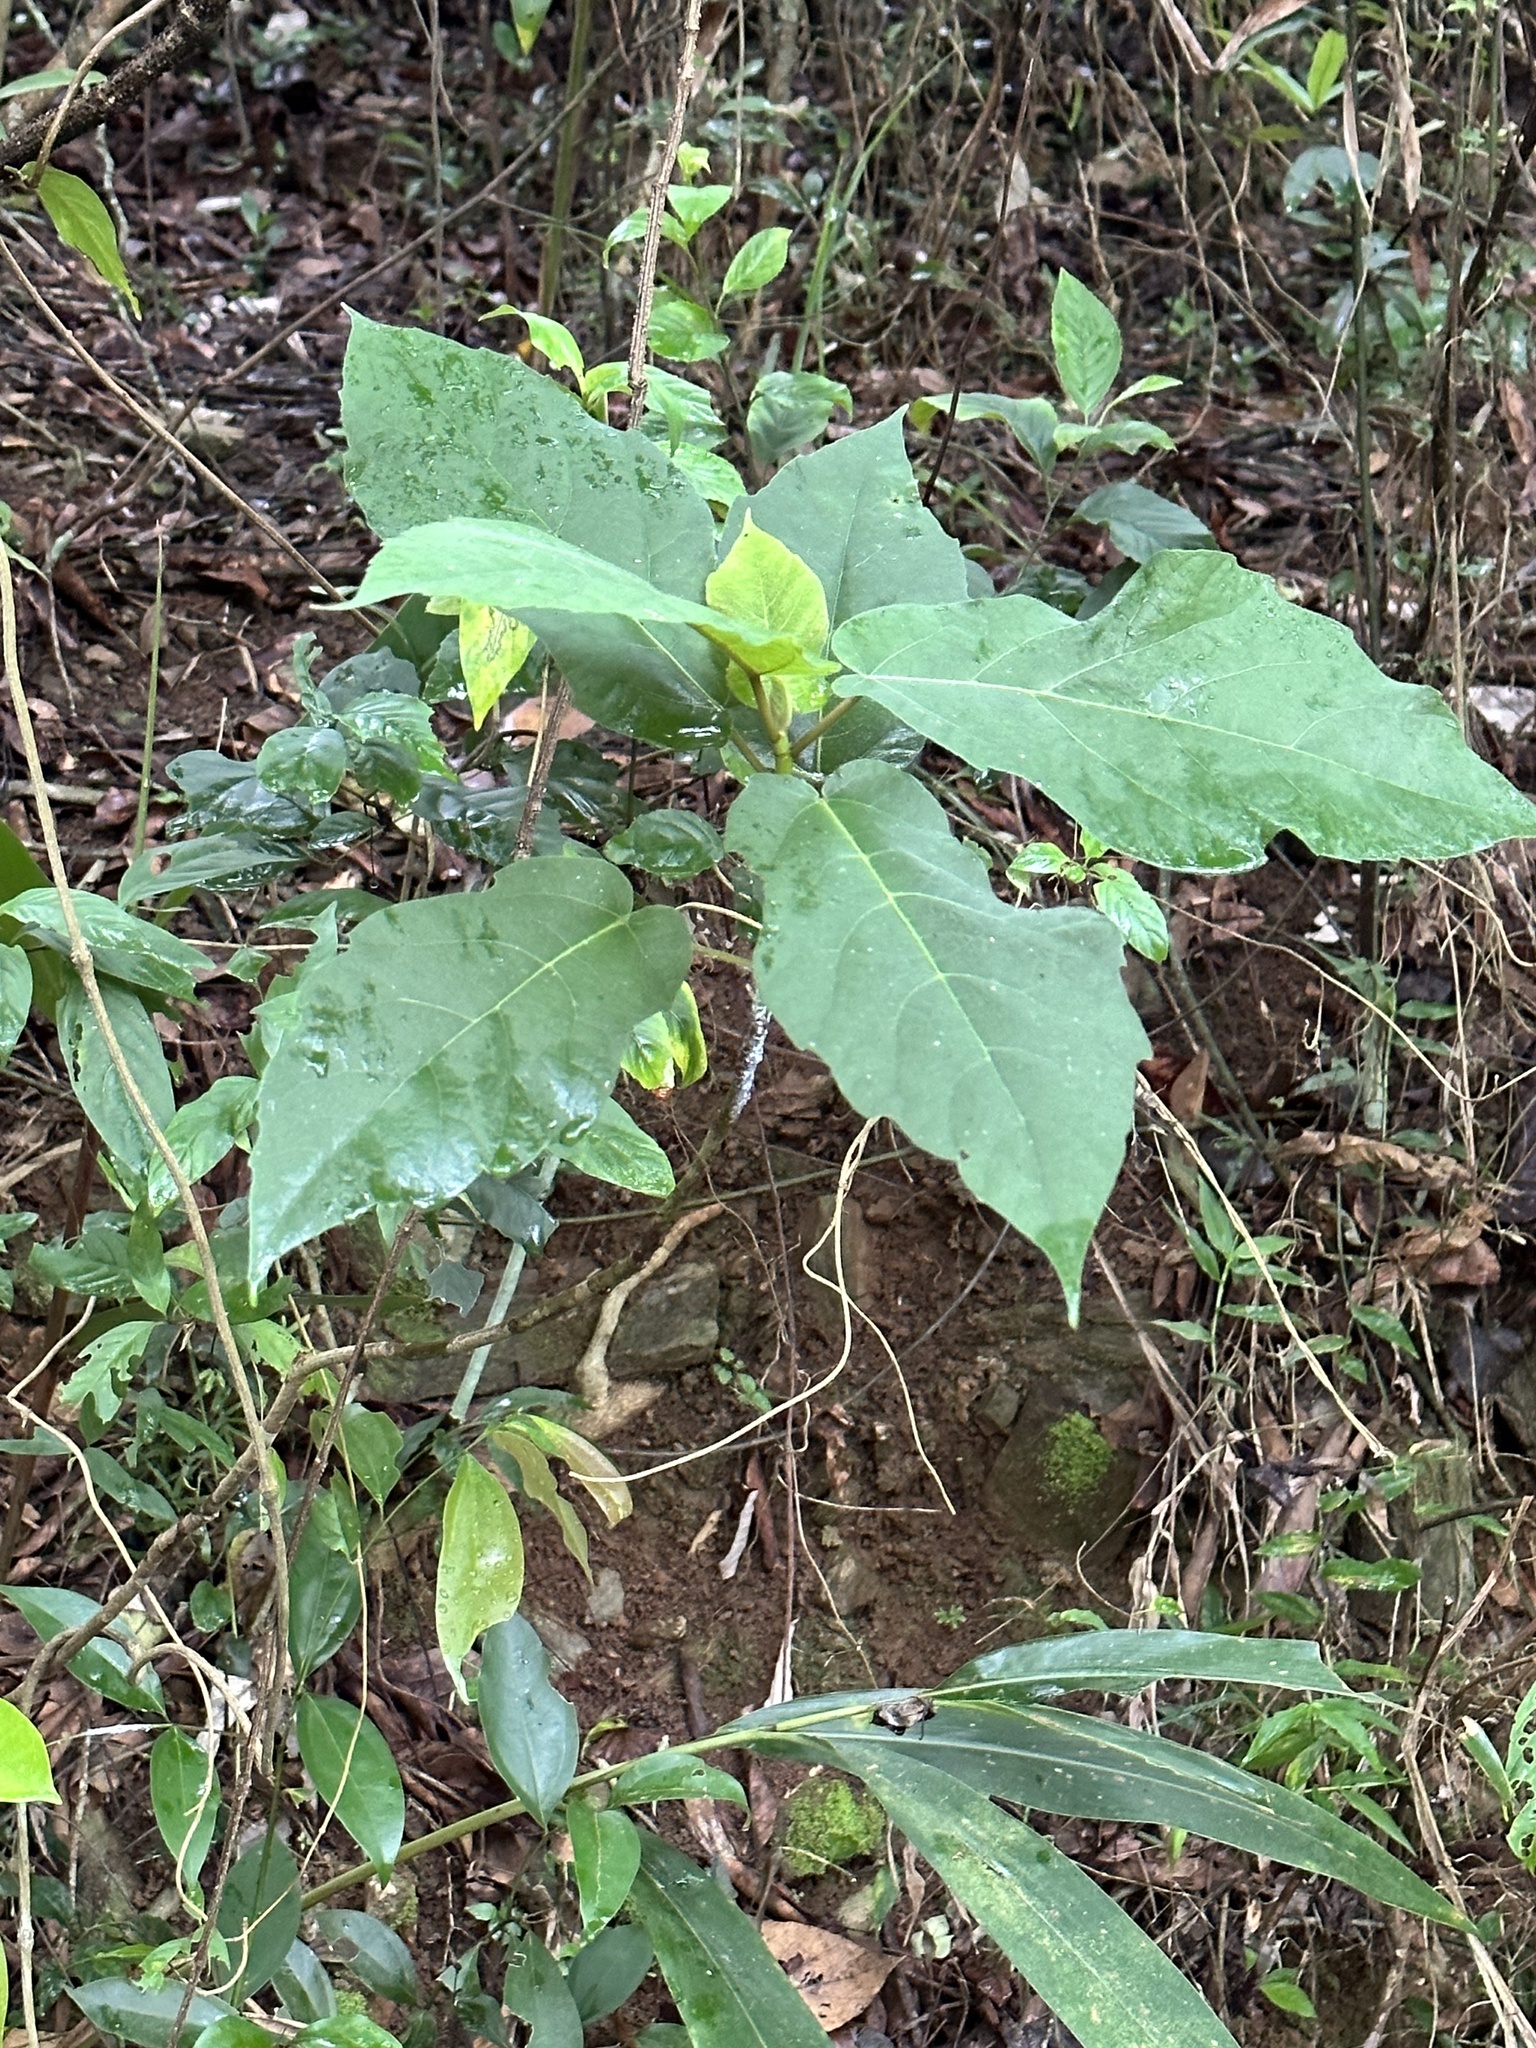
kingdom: Plantae
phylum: Tracheophyta
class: Magnoliopsida
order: Rosales
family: Moraceae
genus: Ficus
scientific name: Ficus erecta
